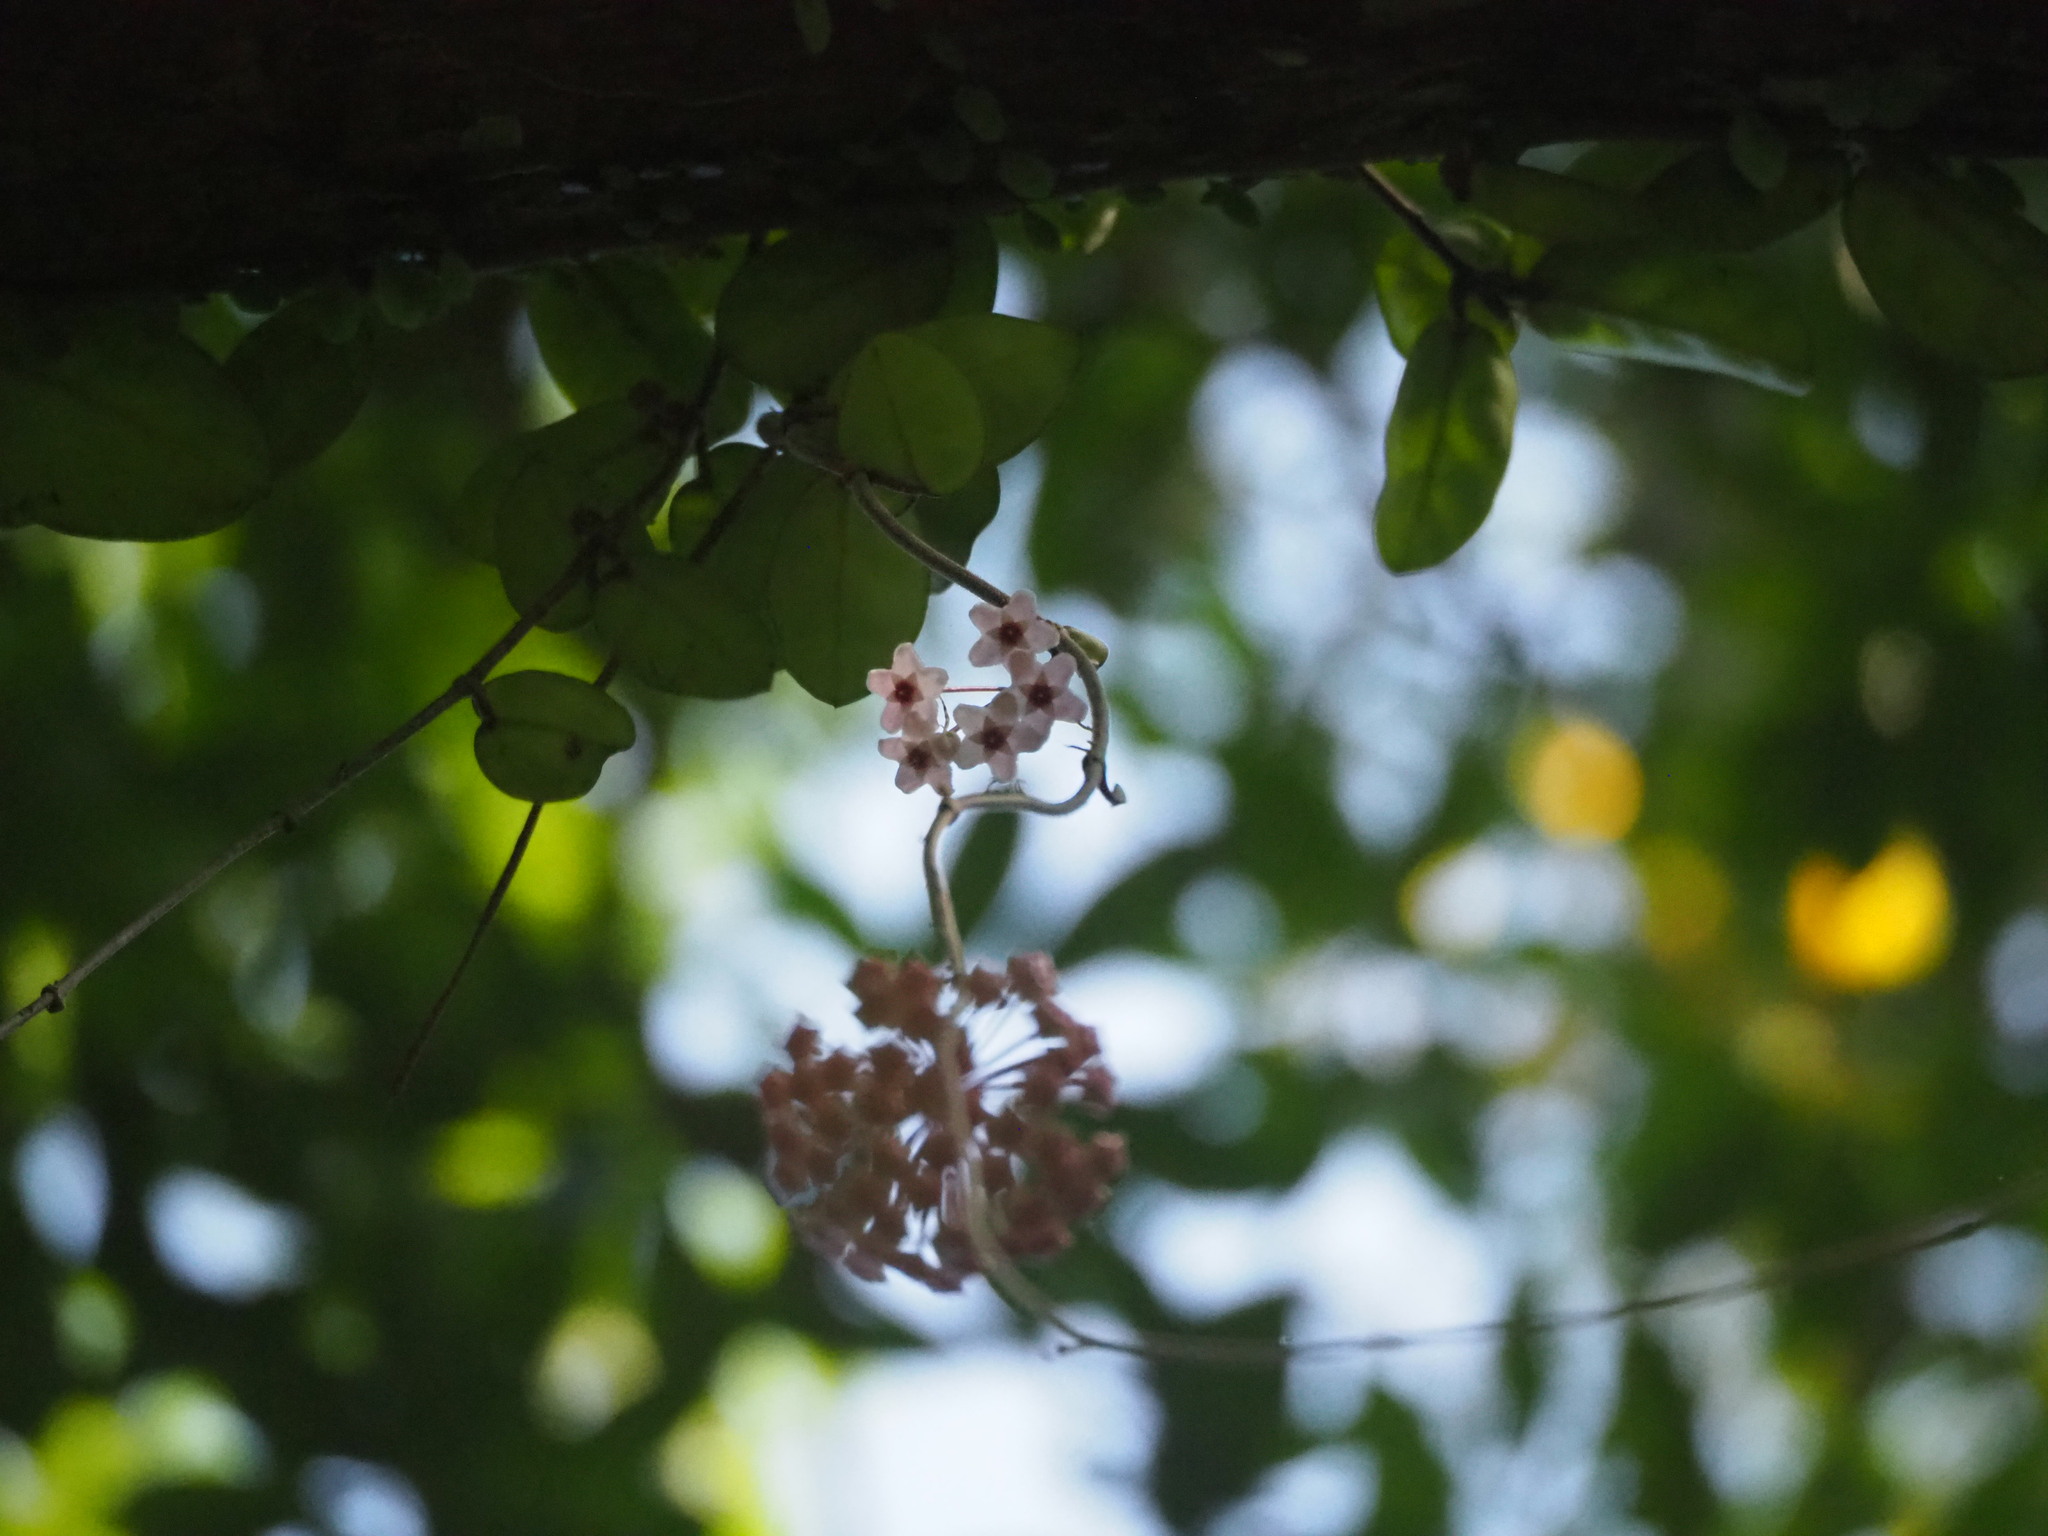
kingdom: Plantae
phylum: Tracheophyta
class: Magnoliopsida
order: Gentianales
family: Apocynaceae
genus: Hoya
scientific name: Hoya carnosa
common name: Honeyplant
